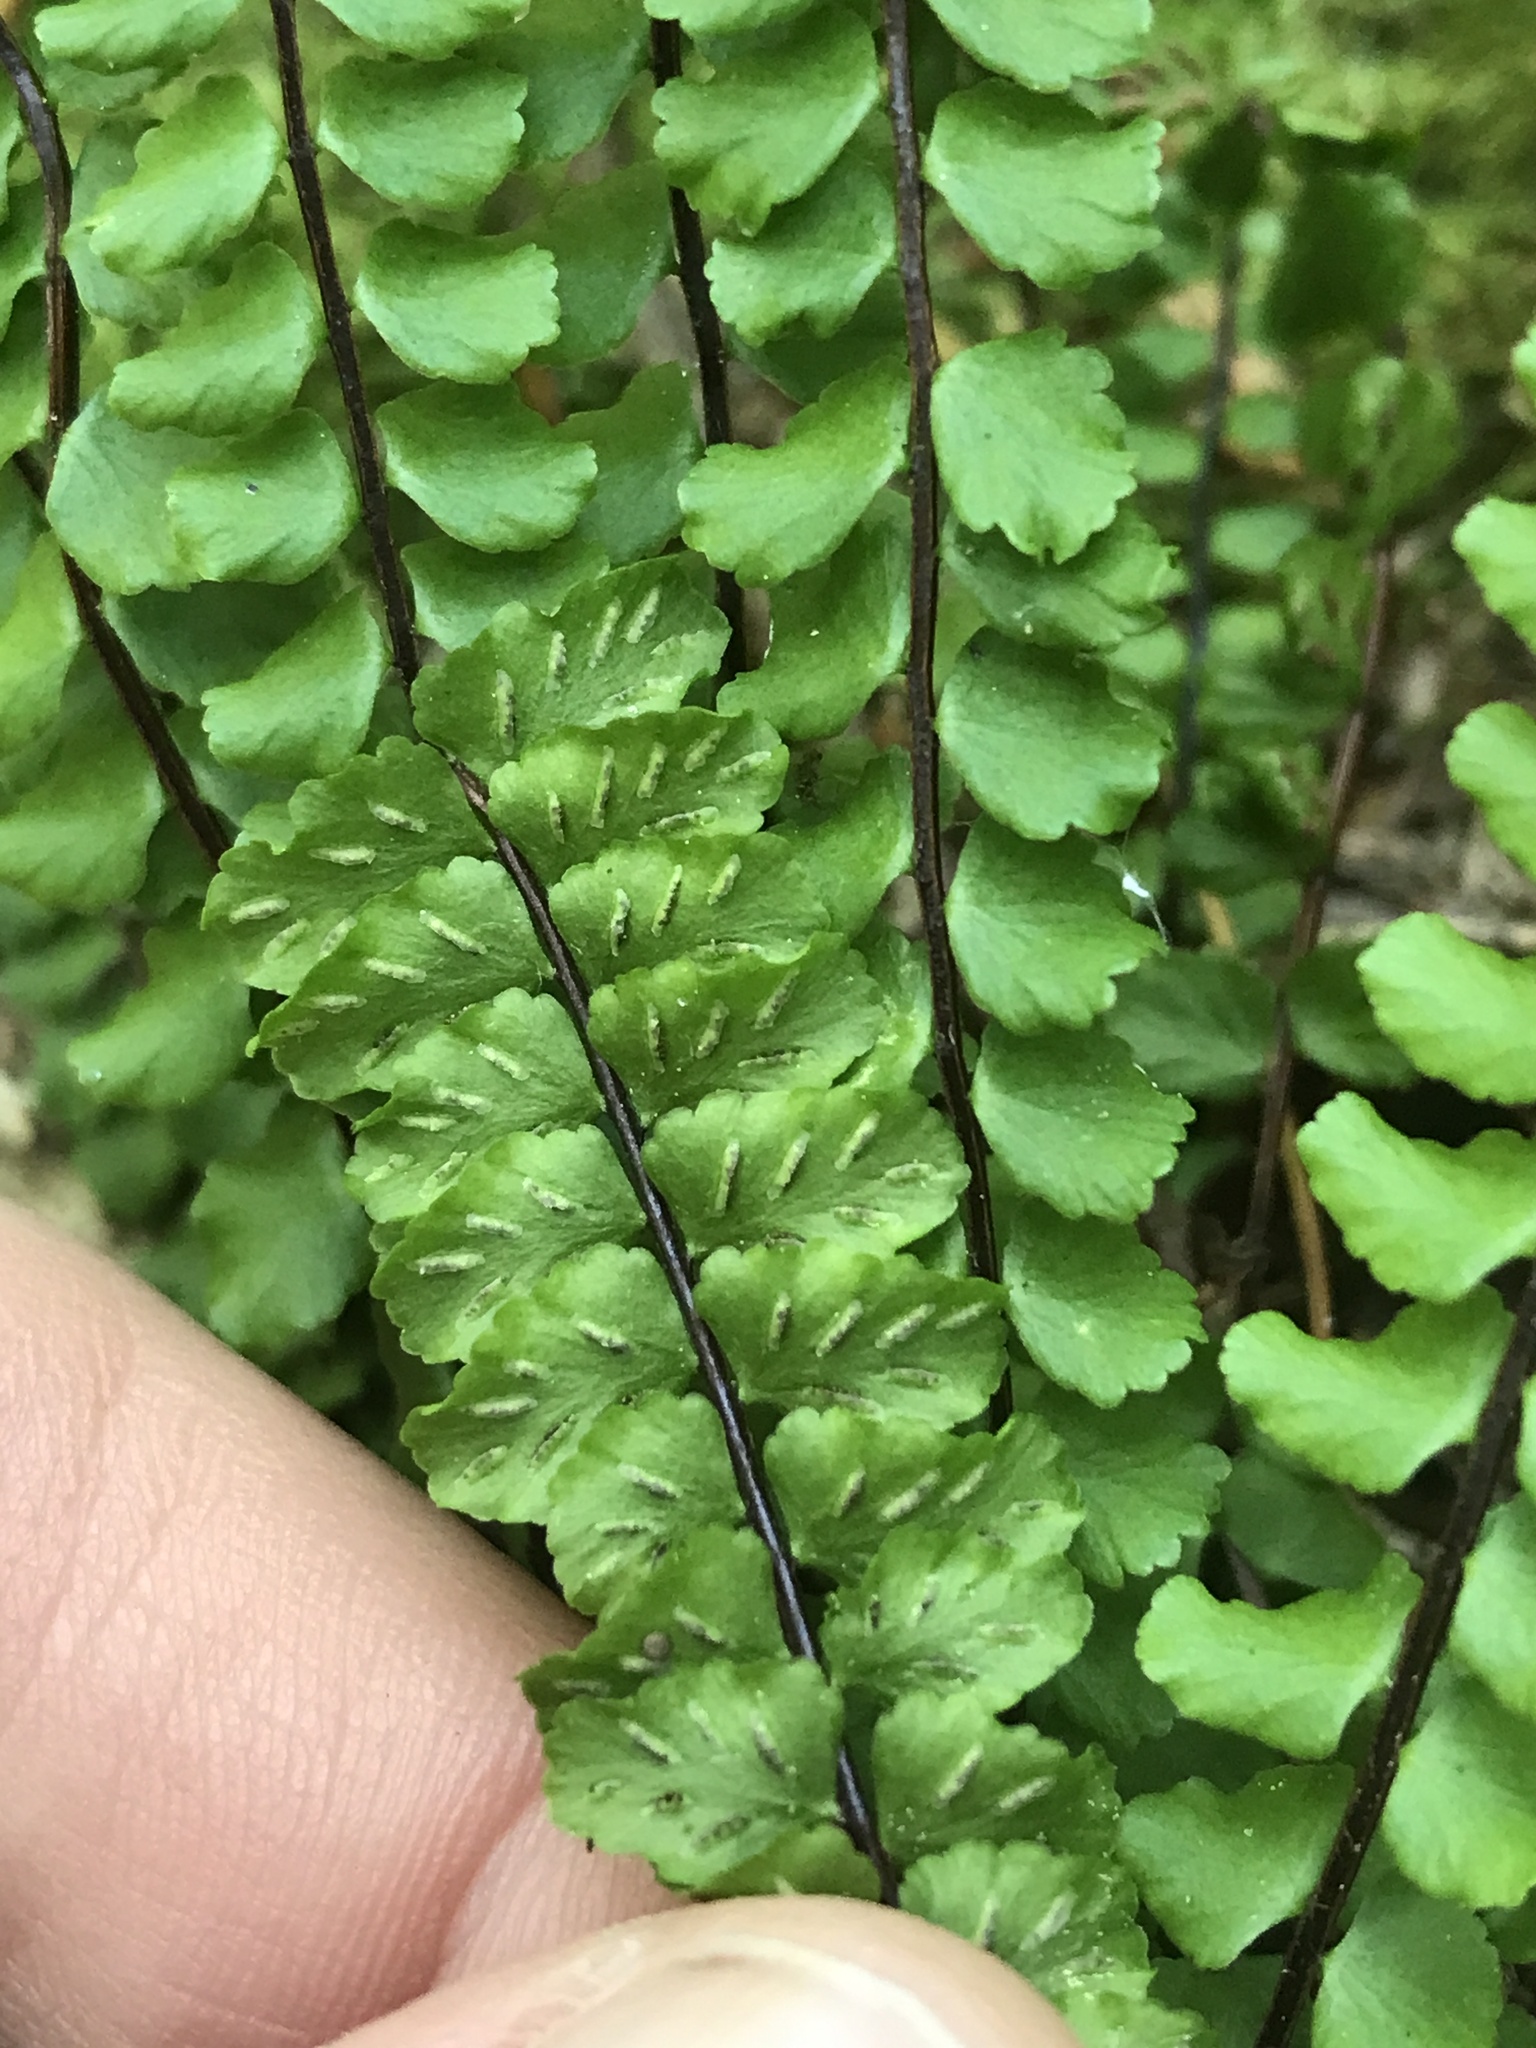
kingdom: Plantae
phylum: Tracheophyta
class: Polypodiopsida
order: Polypodiales
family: Aspleniaceae
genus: Asplenium
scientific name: Asplenium trichomanes
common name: Maidenhair spleenwort
